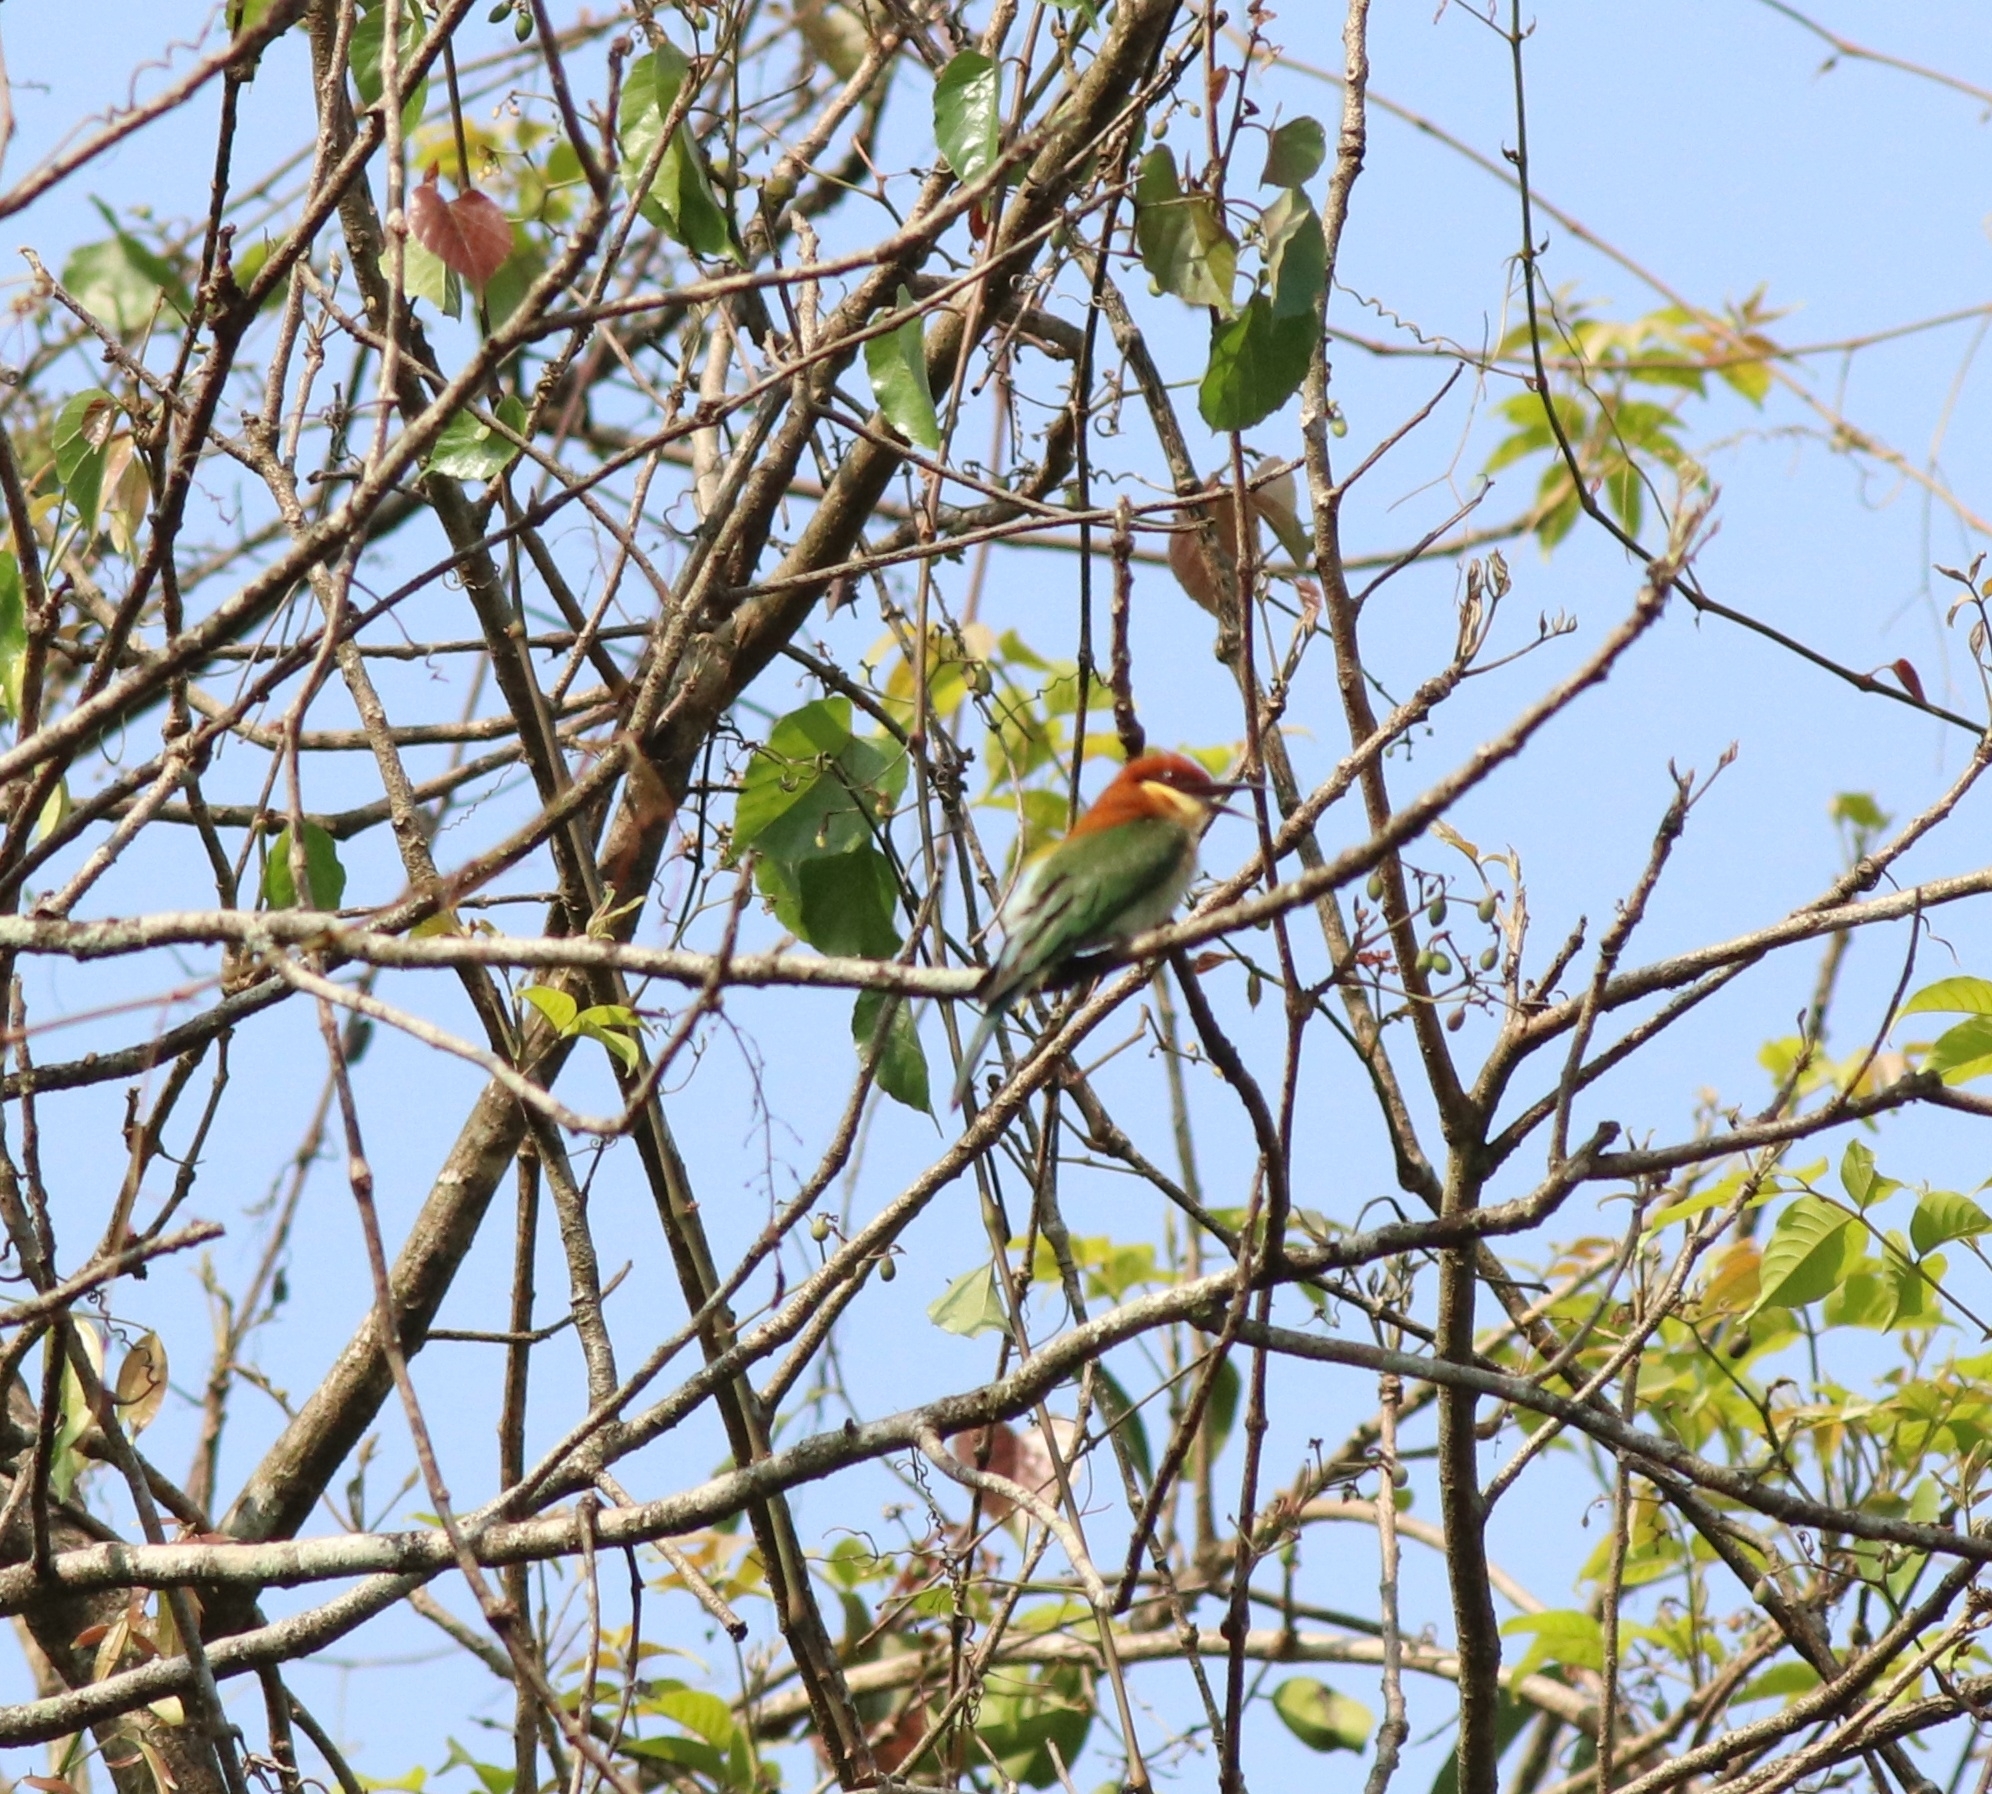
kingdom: Animalia
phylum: Chordata
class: Aves
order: Coraciiformes
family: Meropidae
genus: Merops
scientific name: Merops leschenaulti
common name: Chestnut-headed bee-eater
